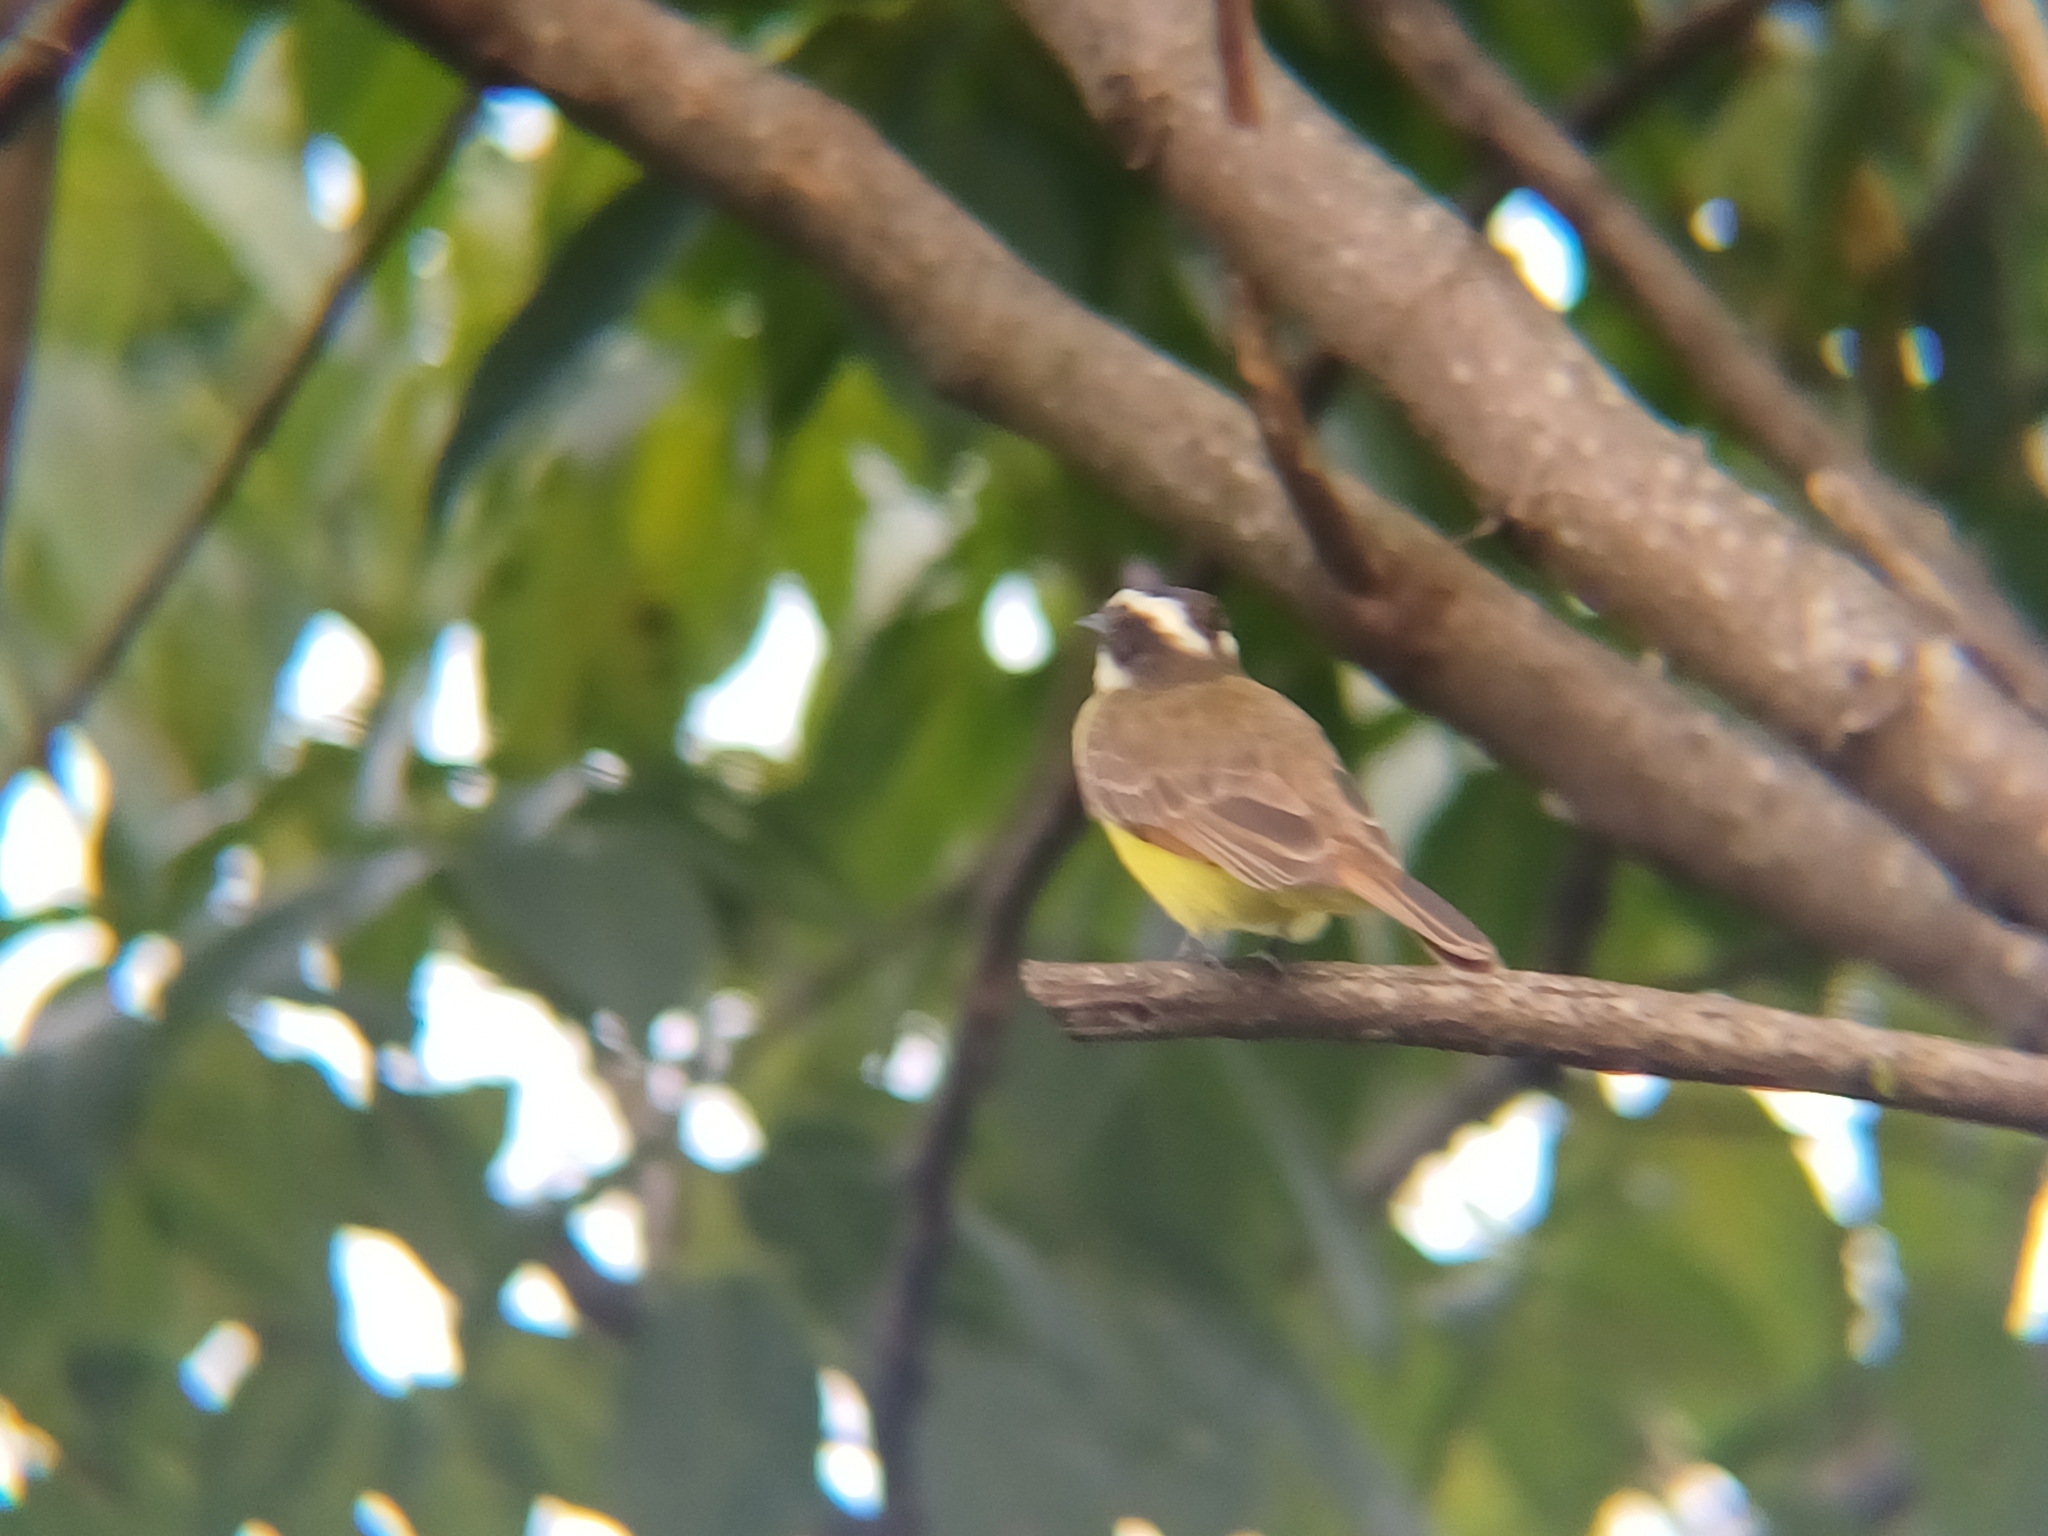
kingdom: Animalia
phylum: Chordata
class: Aves
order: Passeriformes
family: Tyrannidae
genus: Myiozetetes
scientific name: Myiozetetes cayanensis
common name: Rusty-margined flycatcher
